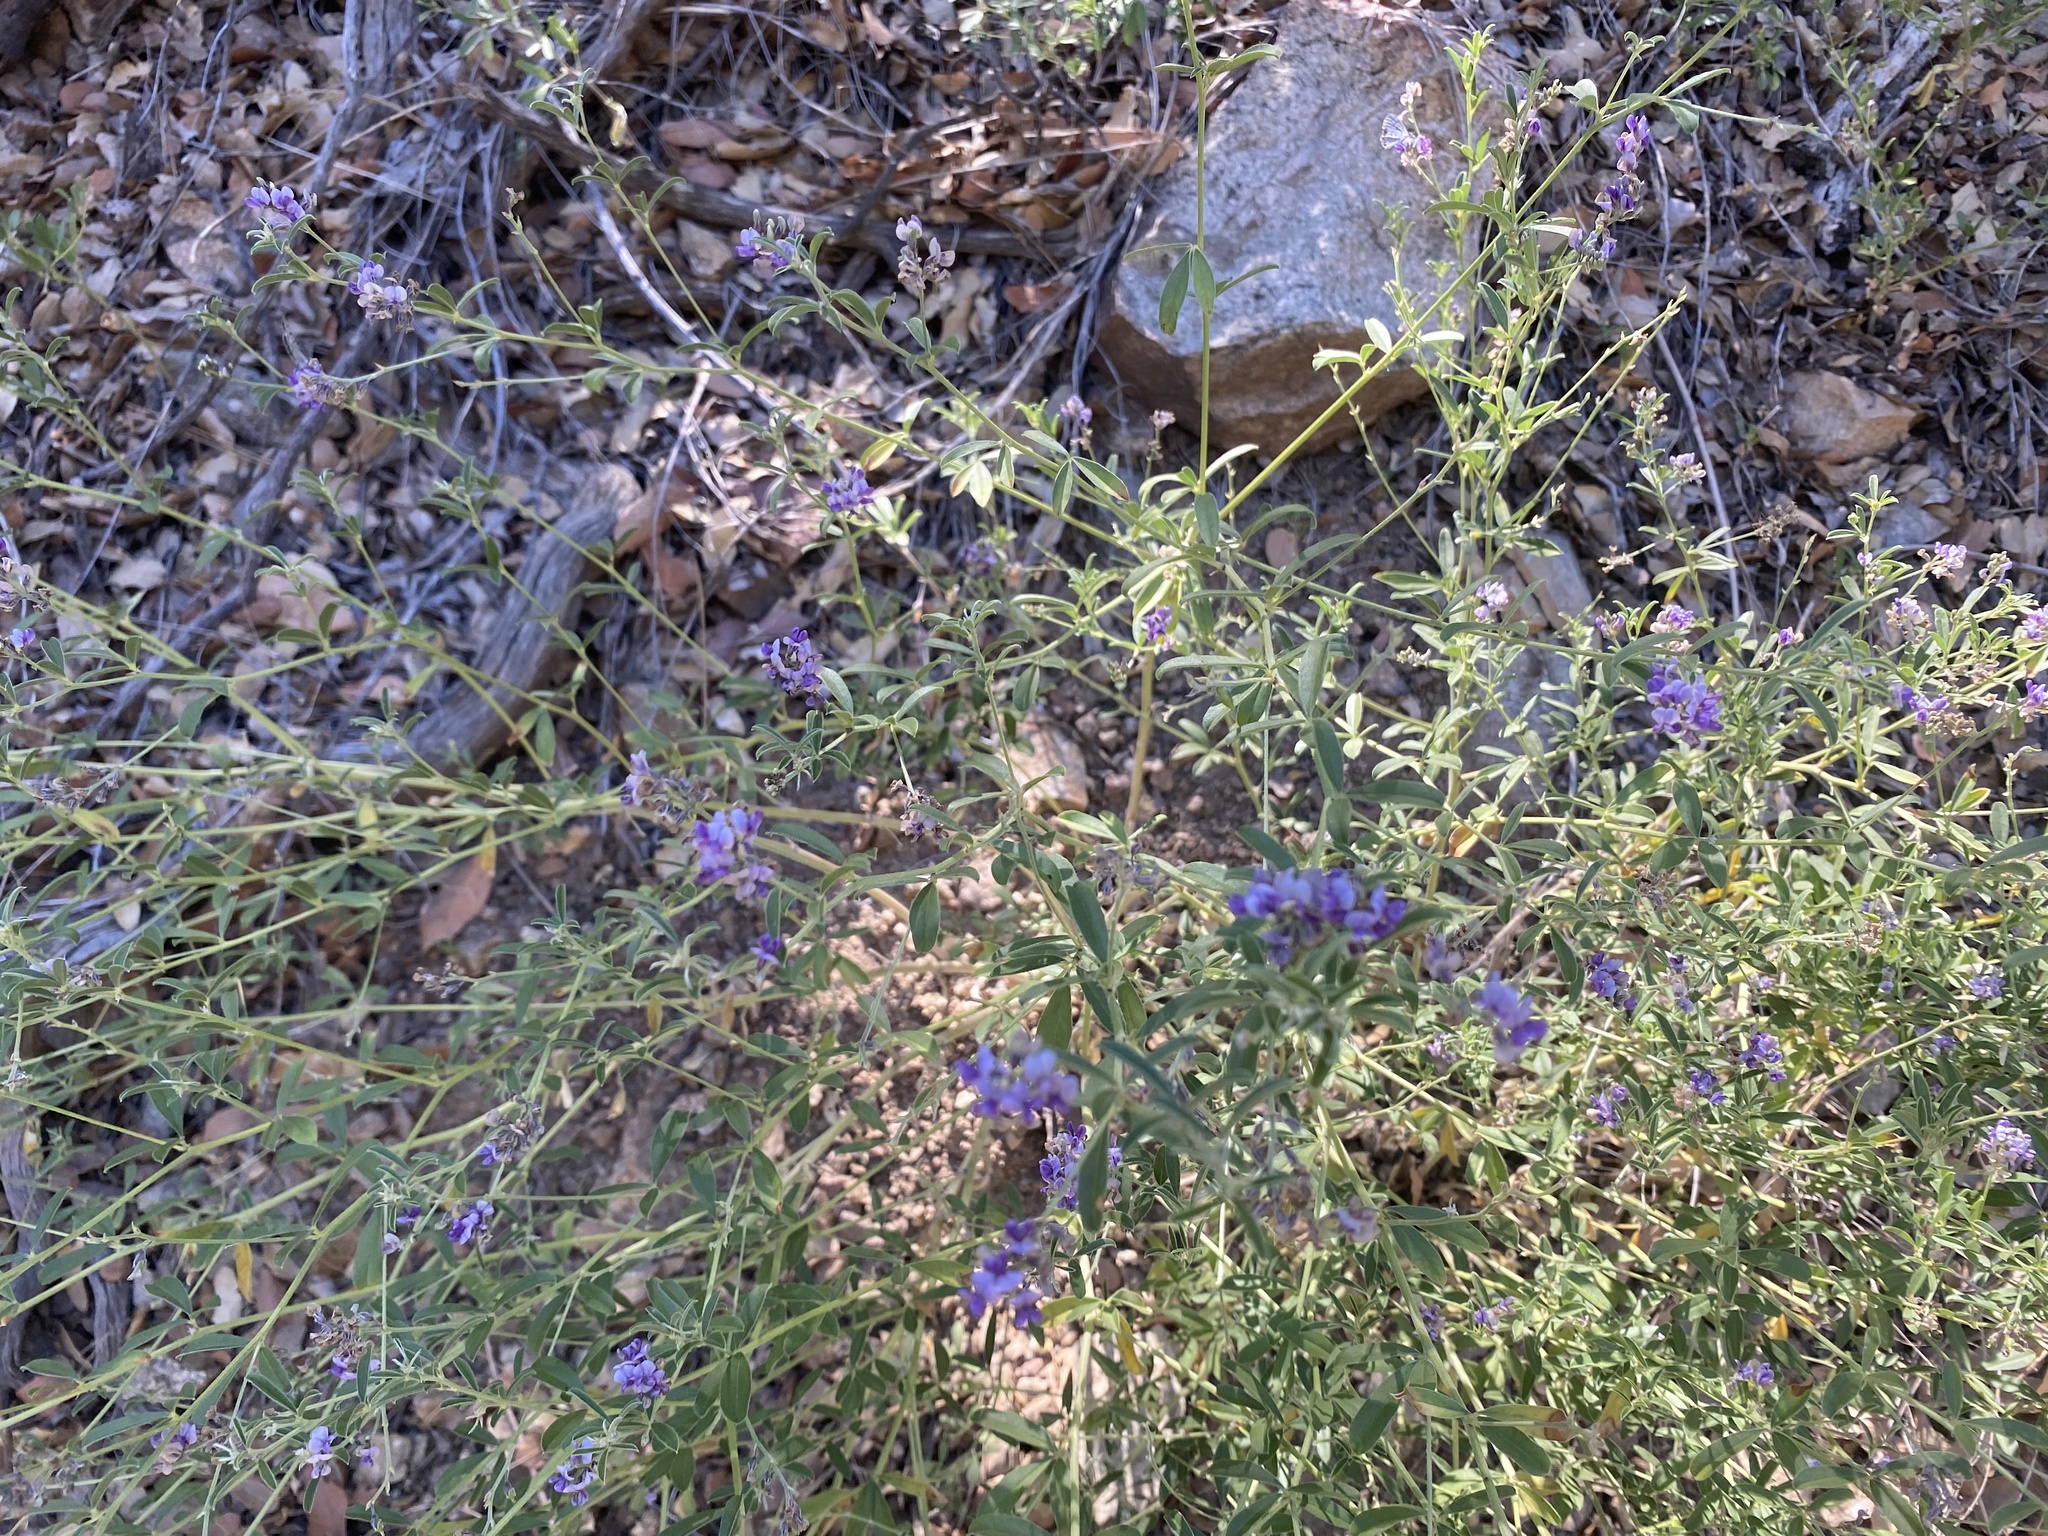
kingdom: Plantae
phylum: Tracheophyta
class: Magnoliopsida
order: Fabales
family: Fabaceae
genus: Pediomelum
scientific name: Pediomelum tenuiflorum
